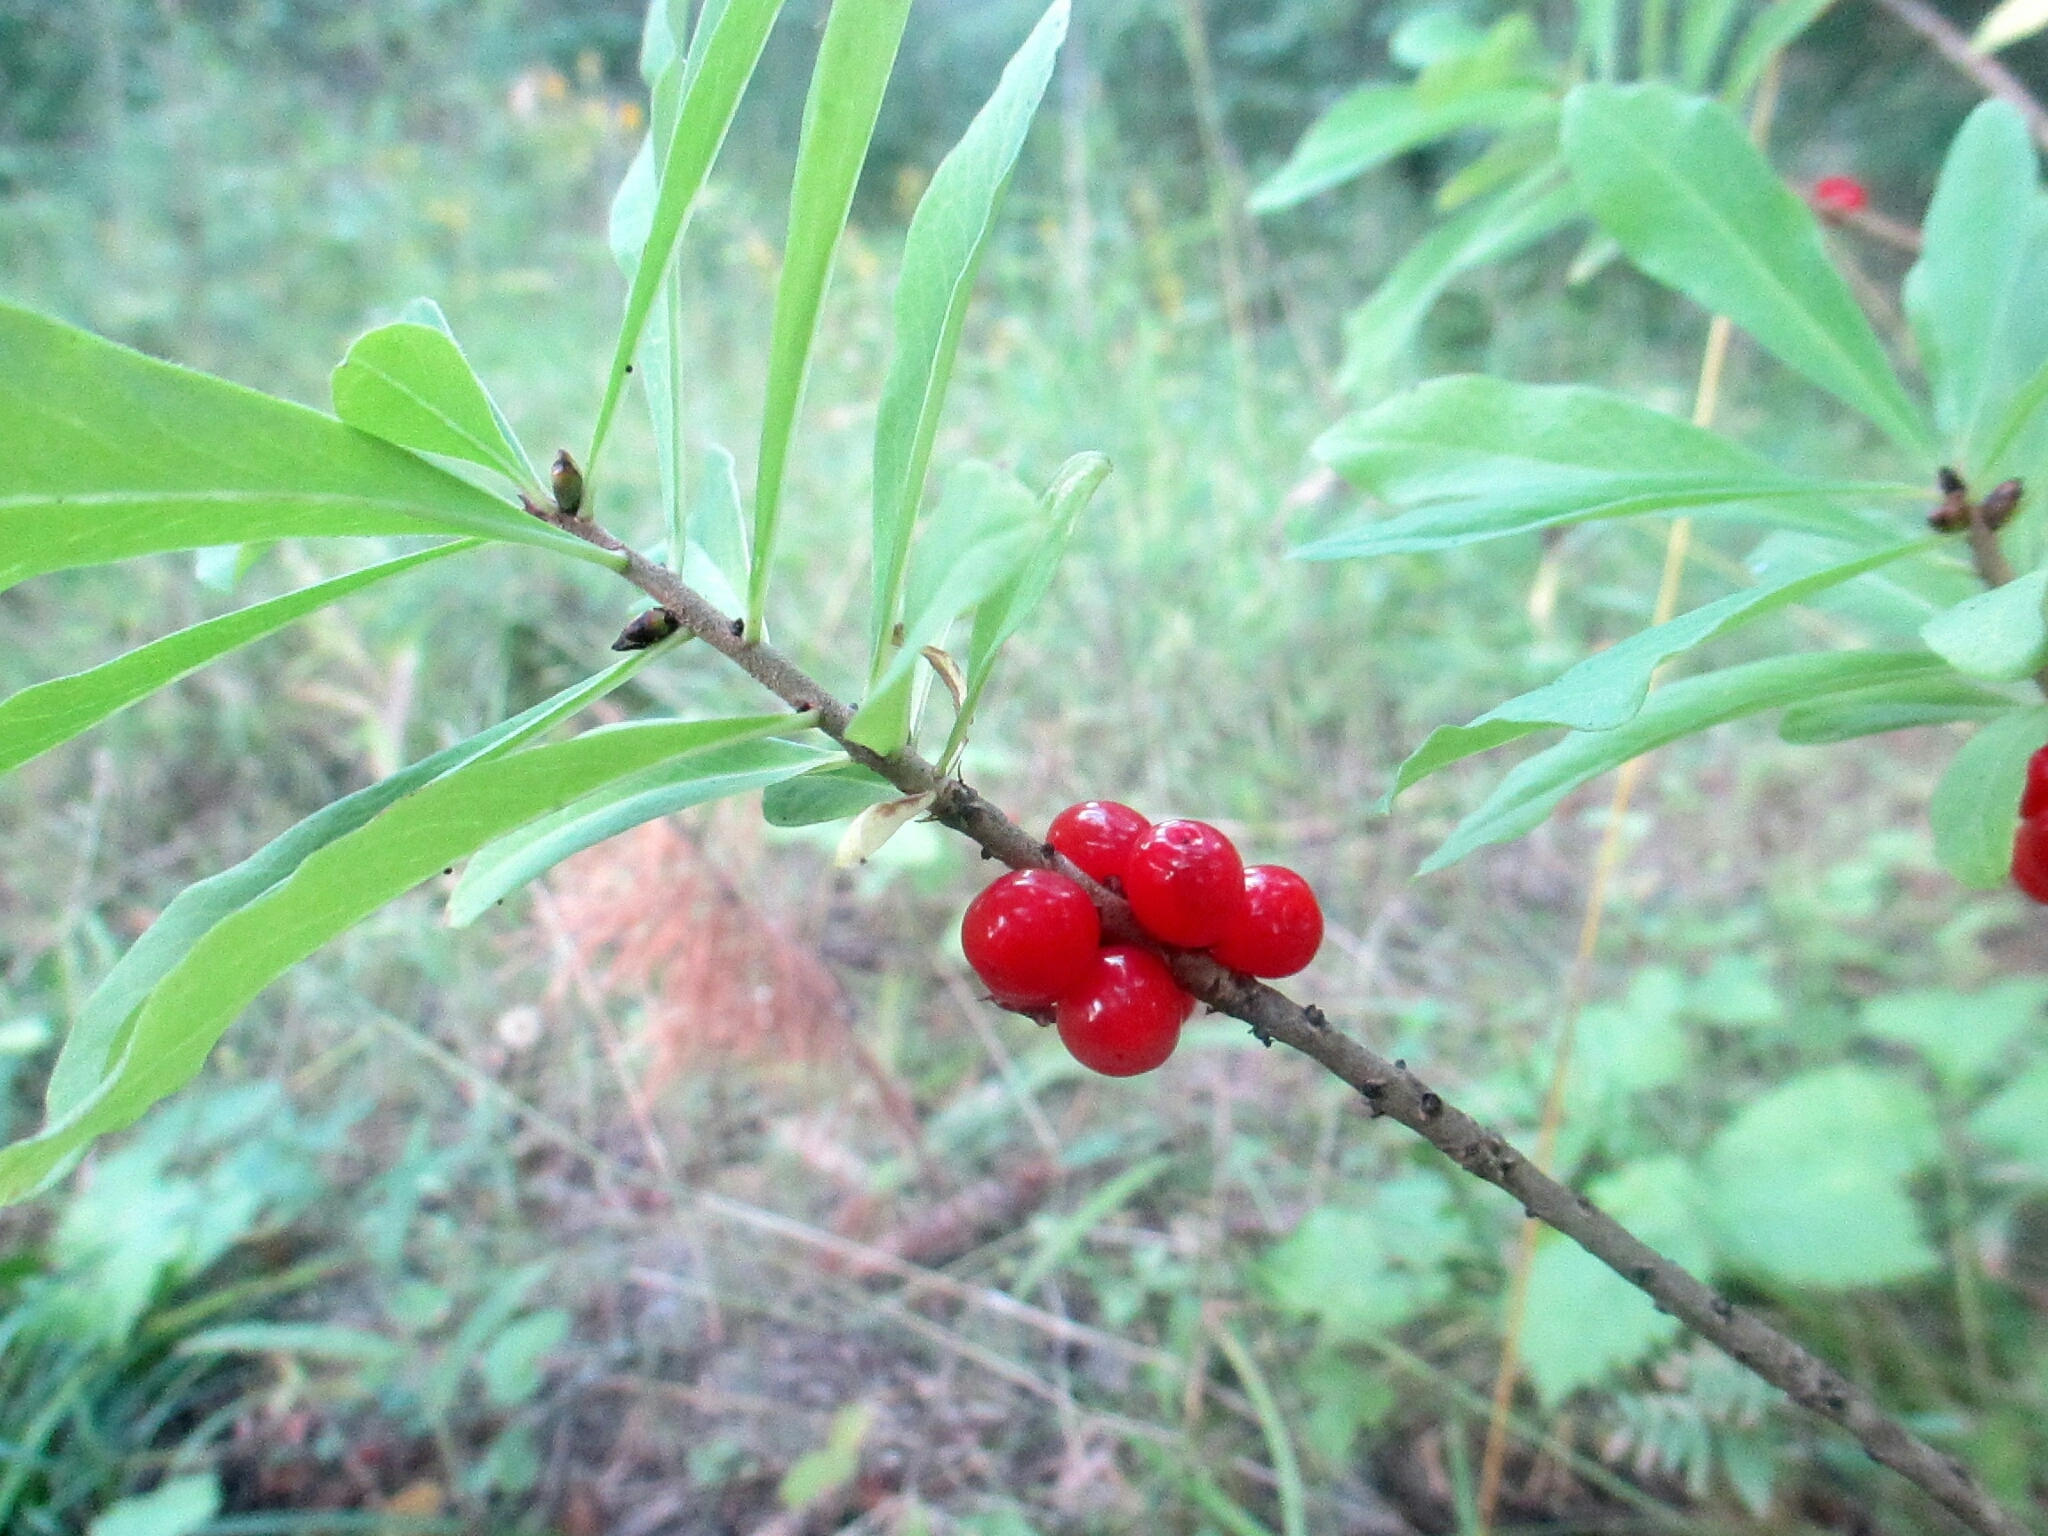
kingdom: Plantae
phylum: Tracheophyta
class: Magnoliopsida
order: Malvales
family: Thymelaeaceae
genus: Daphne
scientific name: Daphne mezereum
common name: Mezereon
